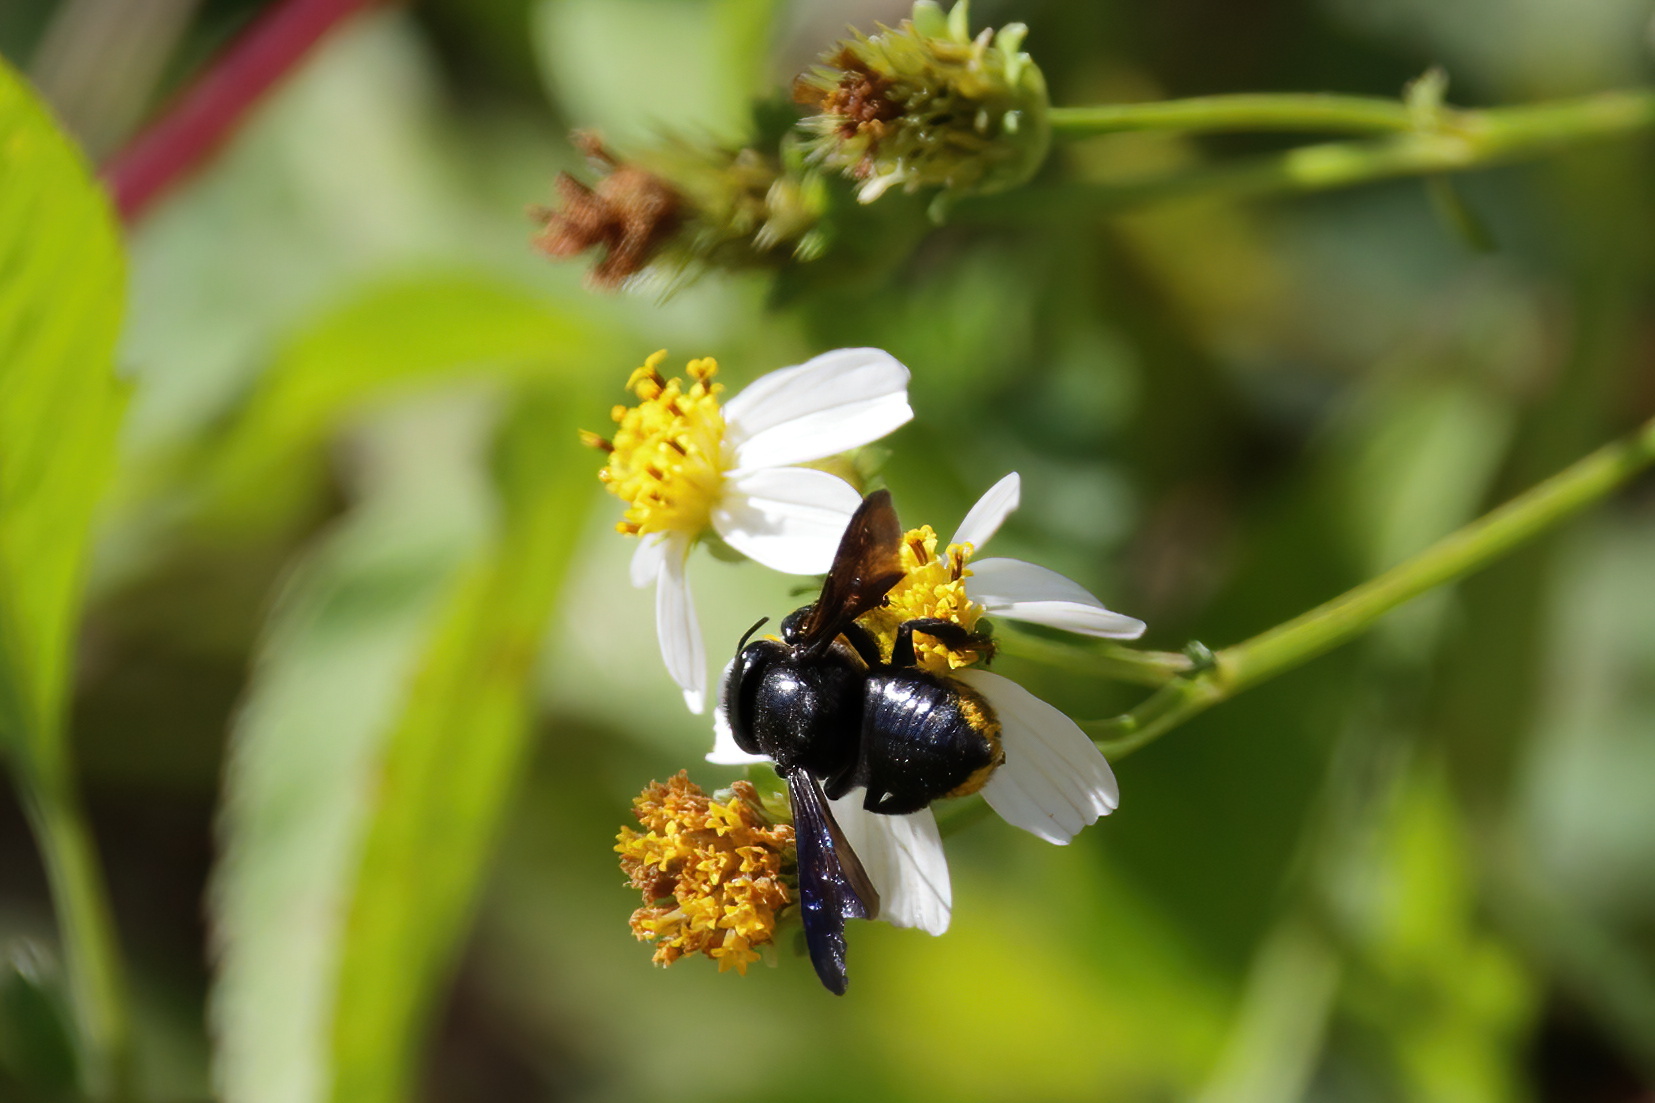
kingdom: Animalia
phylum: Arthropoda
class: Insecta
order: Hymenoptera
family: Megachilidae
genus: Megachile
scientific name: Megachile xylocopoides
